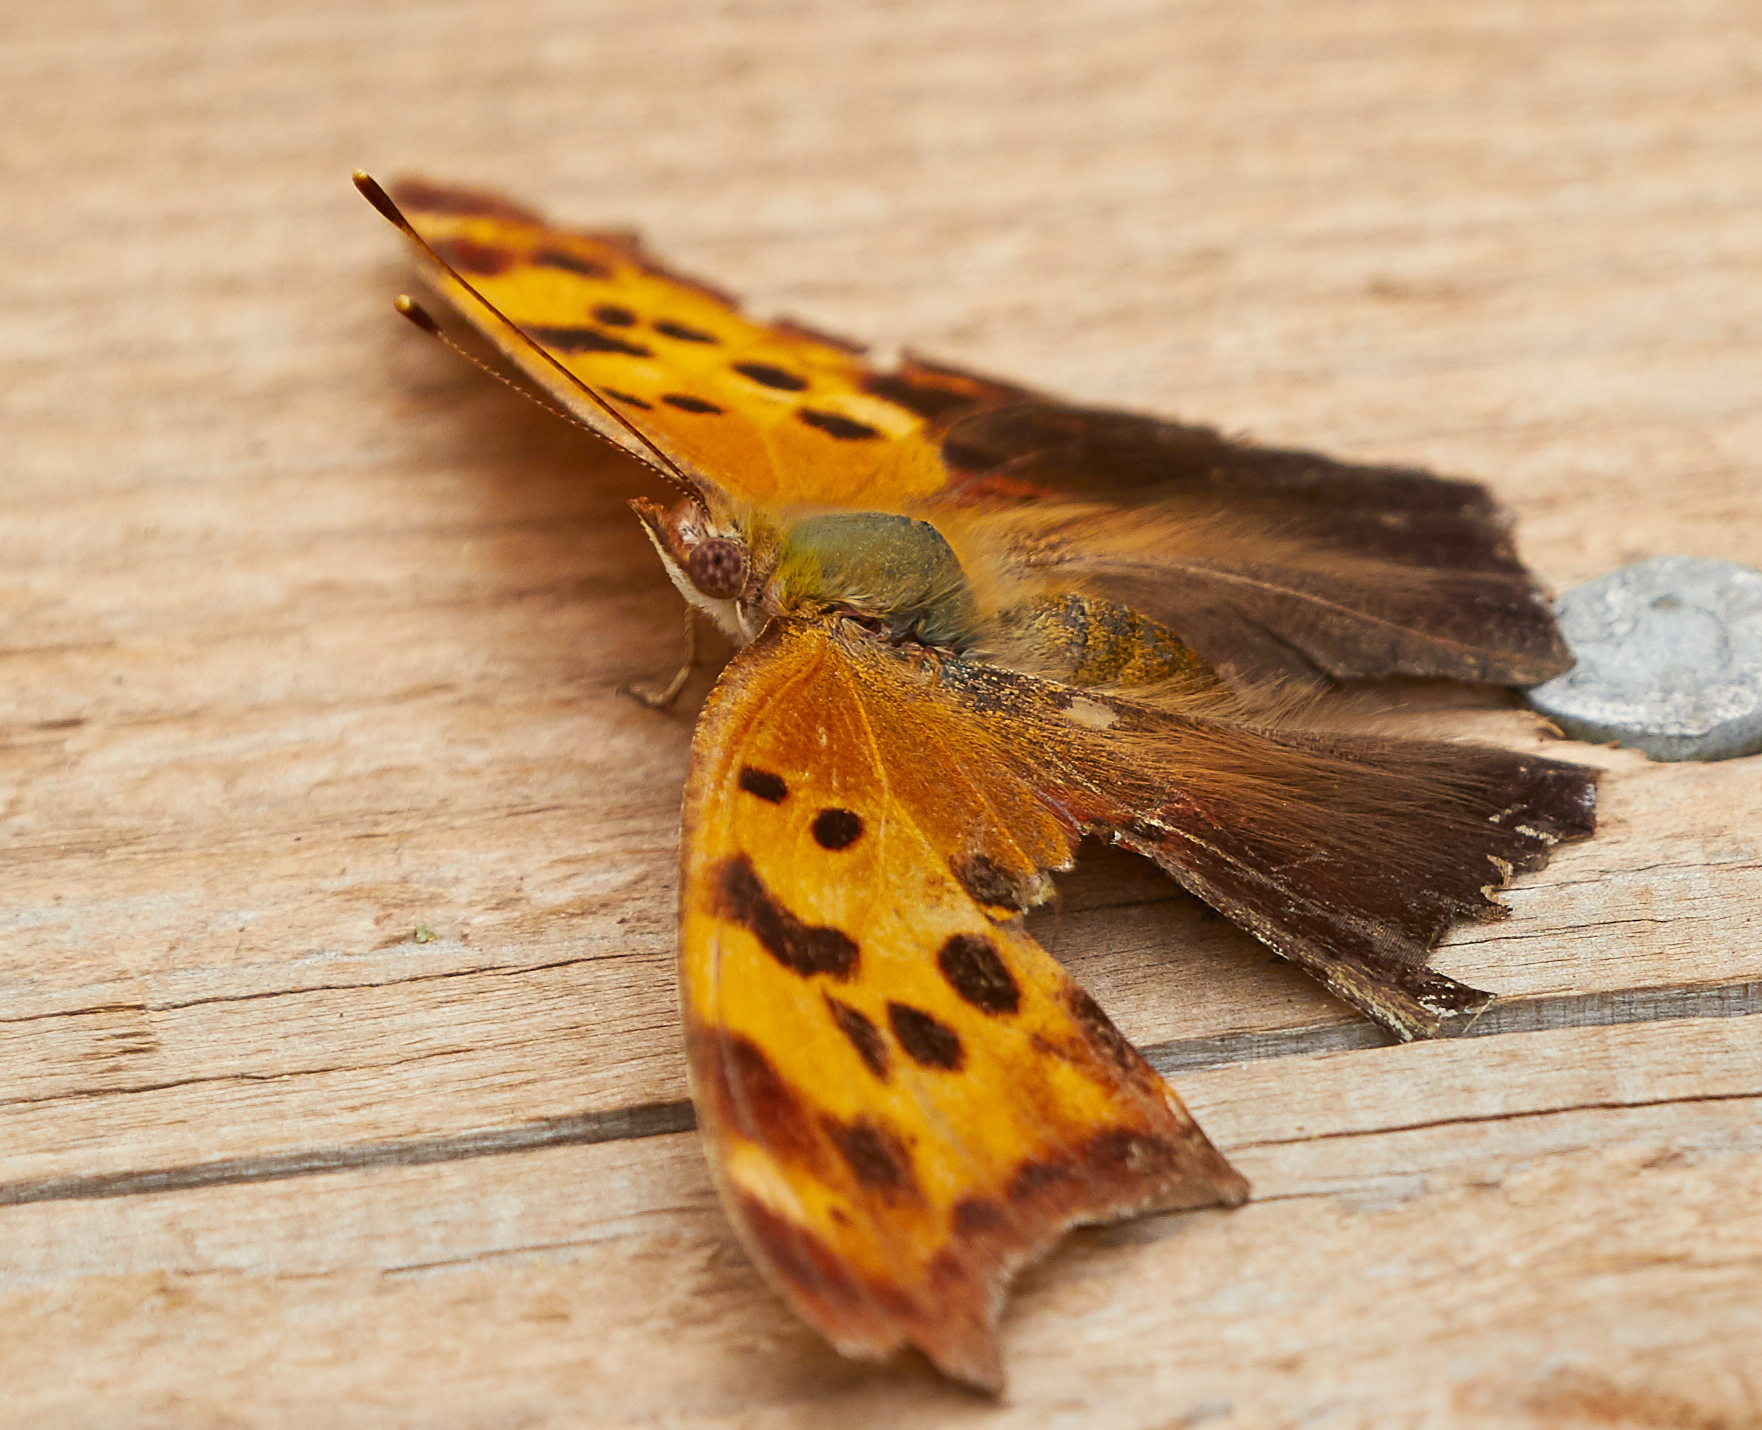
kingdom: Animalia
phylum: Arthropoda
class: Insecta
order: Lepidoptera
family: Nymphalidae
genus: Polygonia
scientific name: Polygonia interrogationis
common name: Question mark
